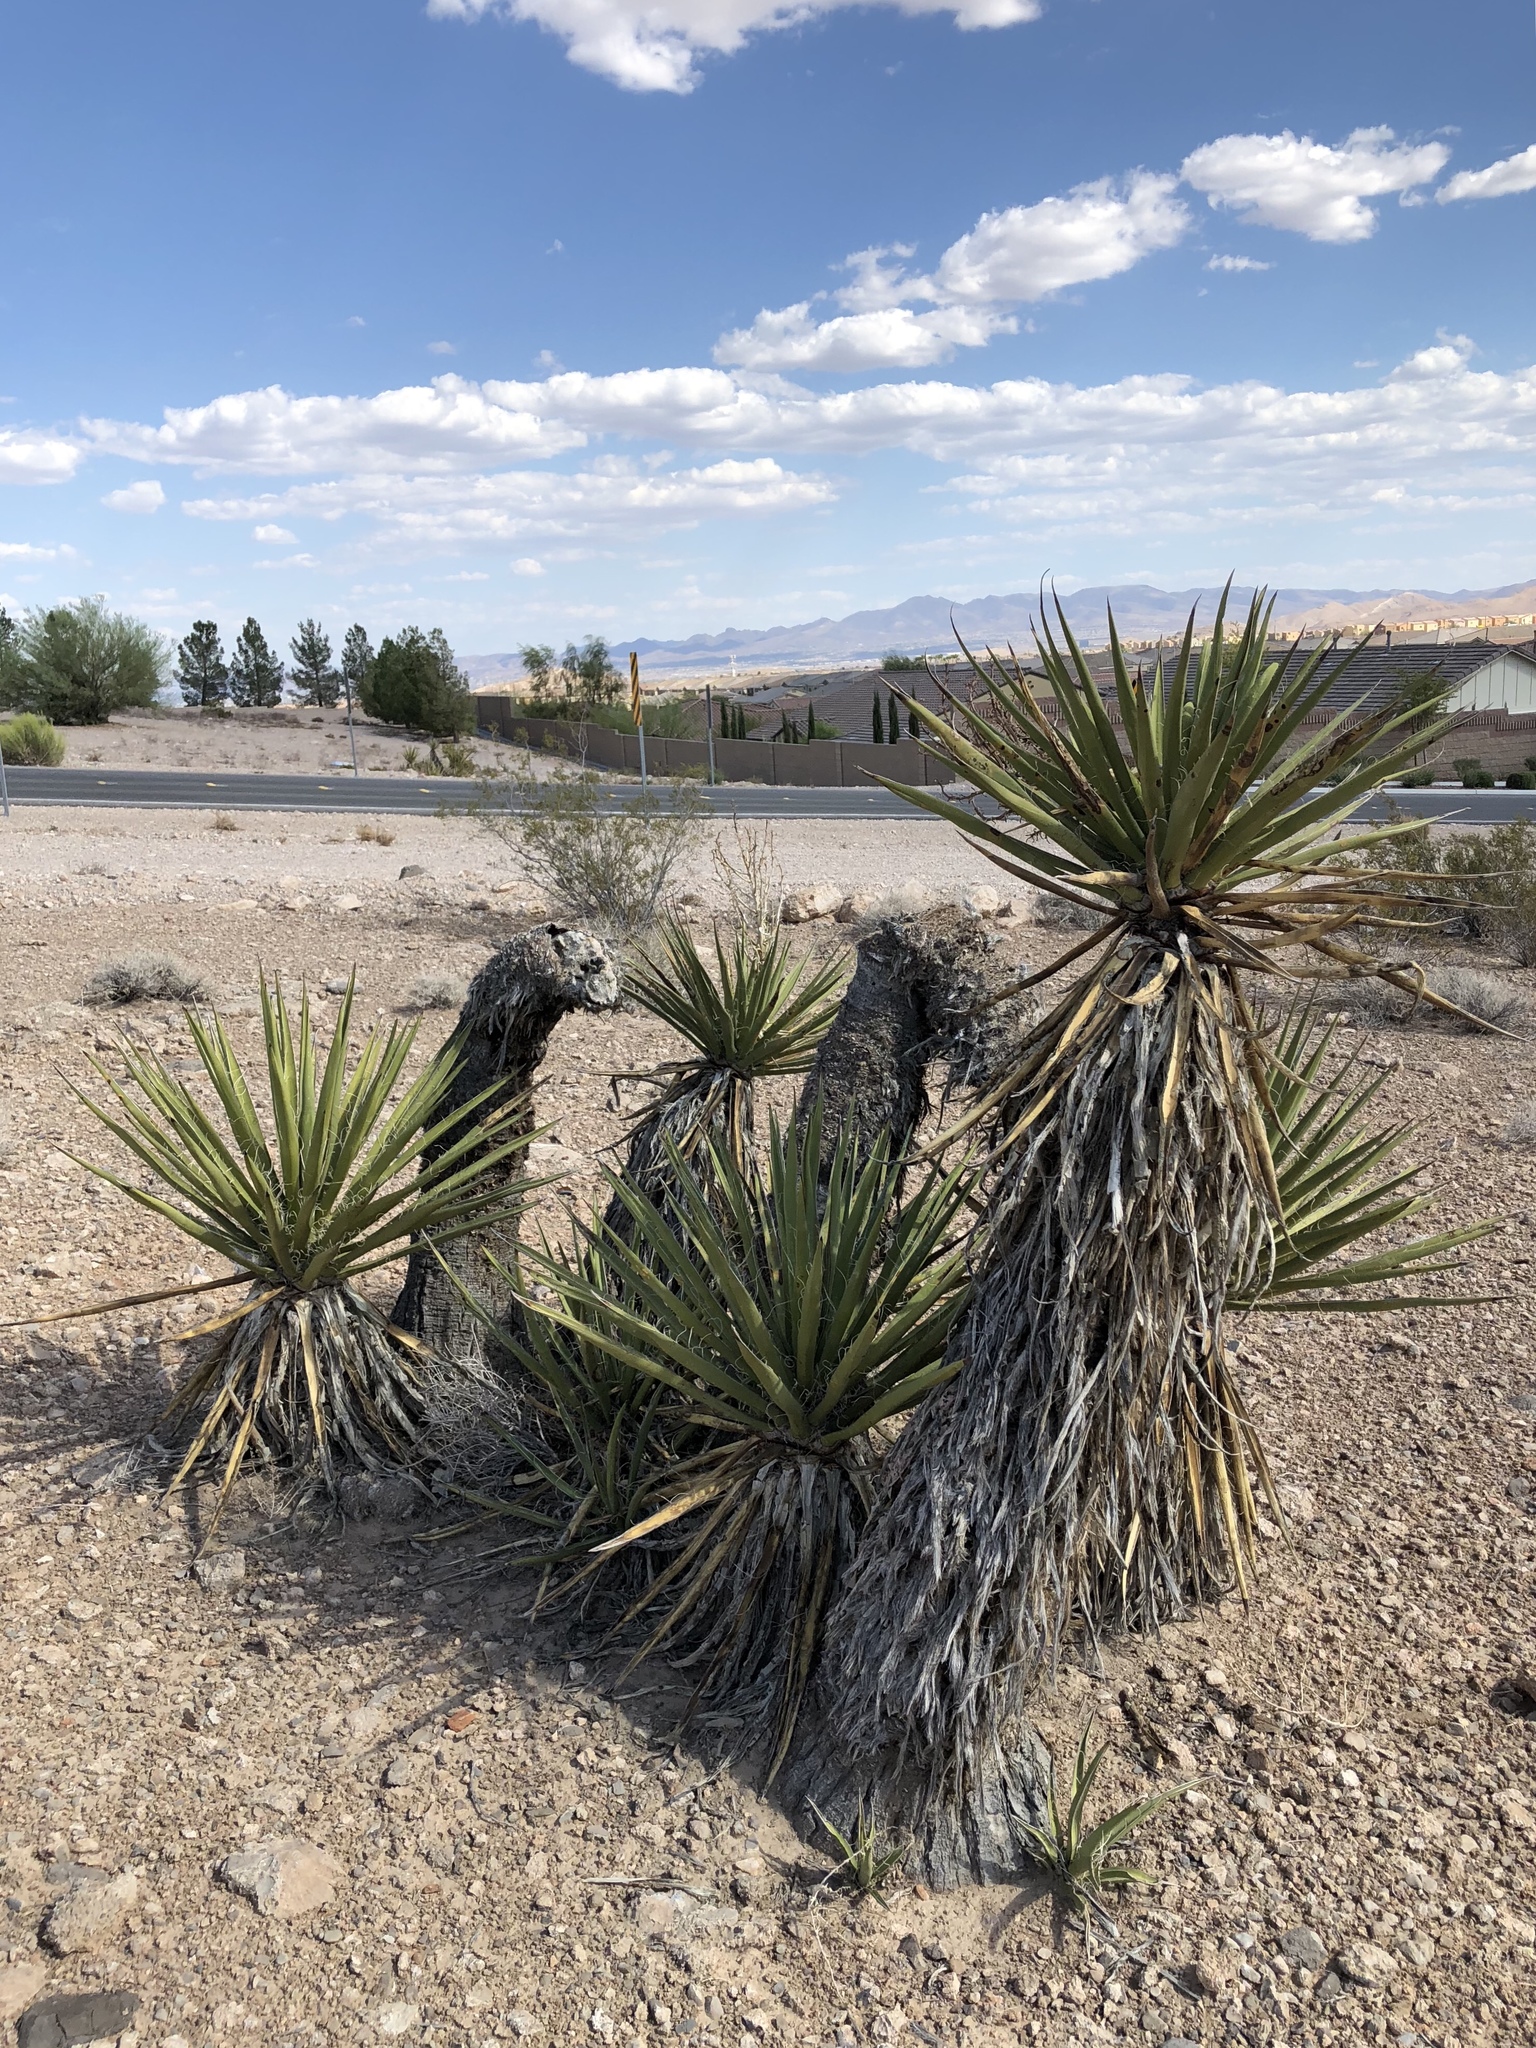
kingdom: Plantae
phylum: Tracheophyta
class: Liliopsida
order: Asparagales
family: Asparagaceae
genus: Yucca
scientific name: Yucca schidigera
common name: Mojave yucca
